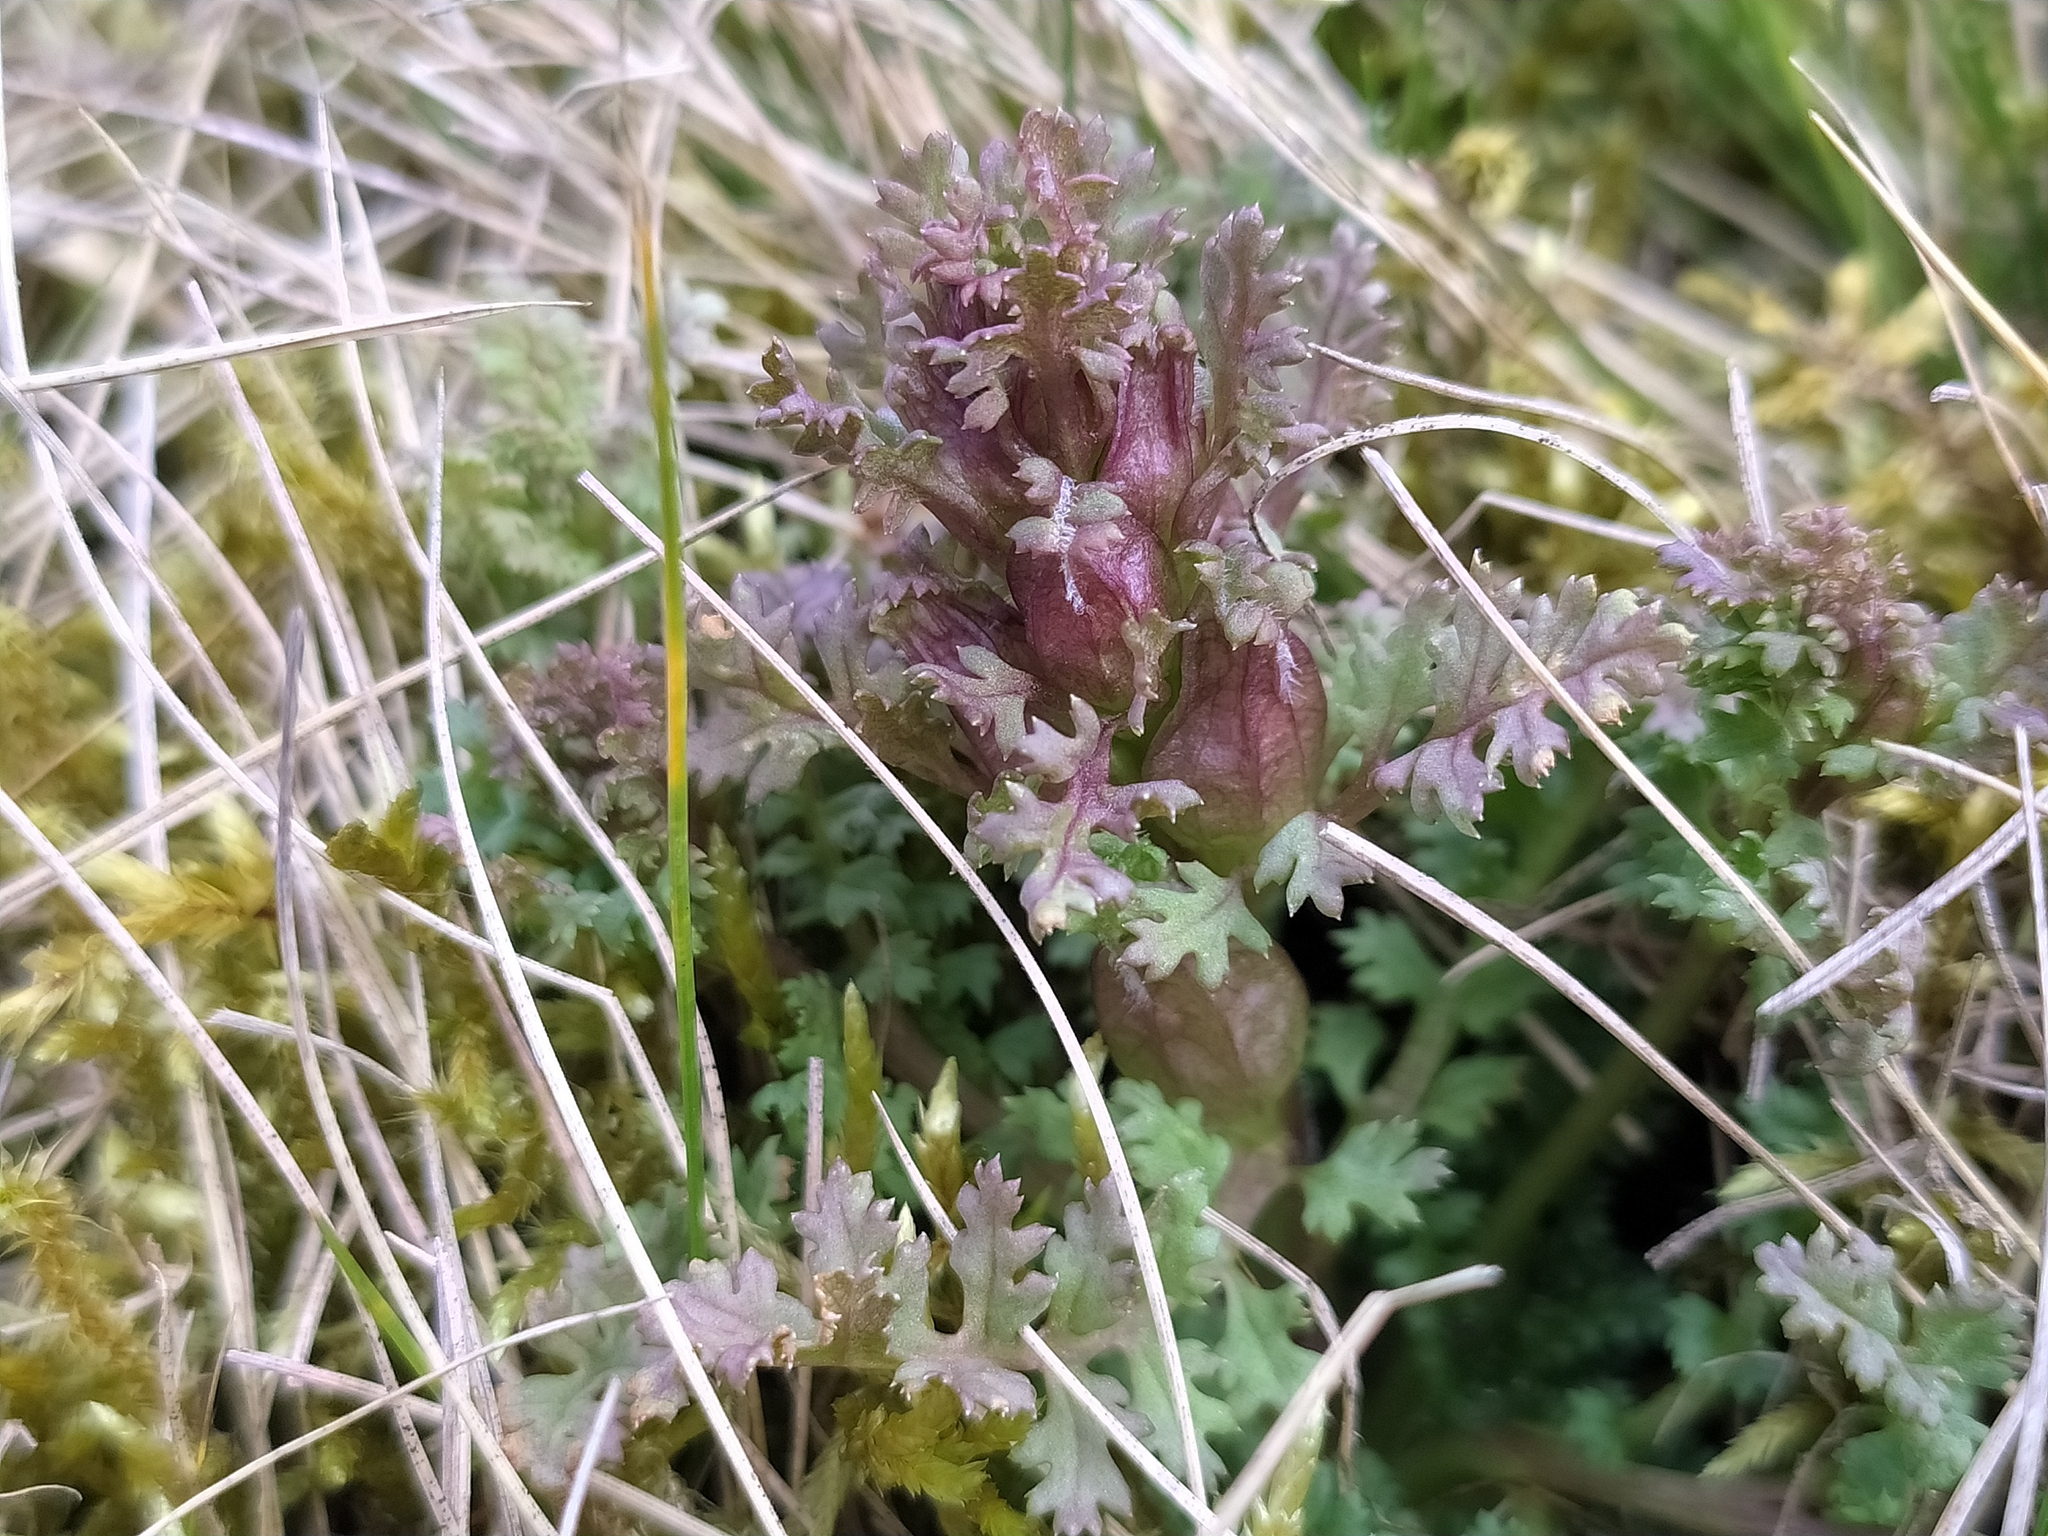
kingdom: Plantae
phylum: Tracheophyta
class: Magnoliopsida
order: Lamiales
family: Orobanchaceae
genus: Pedicularis
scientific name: Pedicularis sylvatica
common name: Lousewort
